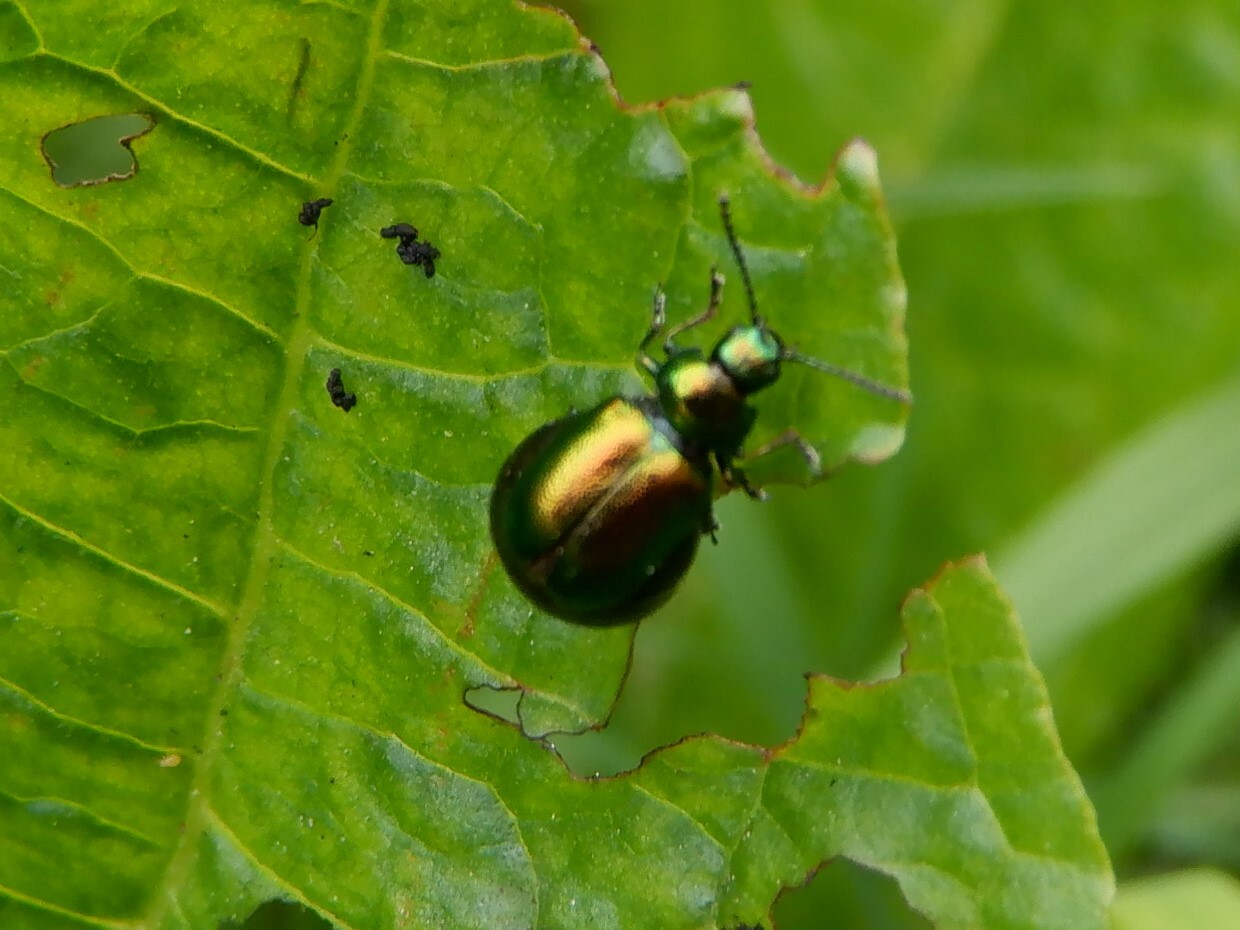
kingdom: Animalia
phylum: Arthropoda
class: Insecta
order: Coleoptera
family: Chrysomelidae
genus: Gastrophysa
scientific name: Gastrophysa viridula
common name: Green dock beetle
